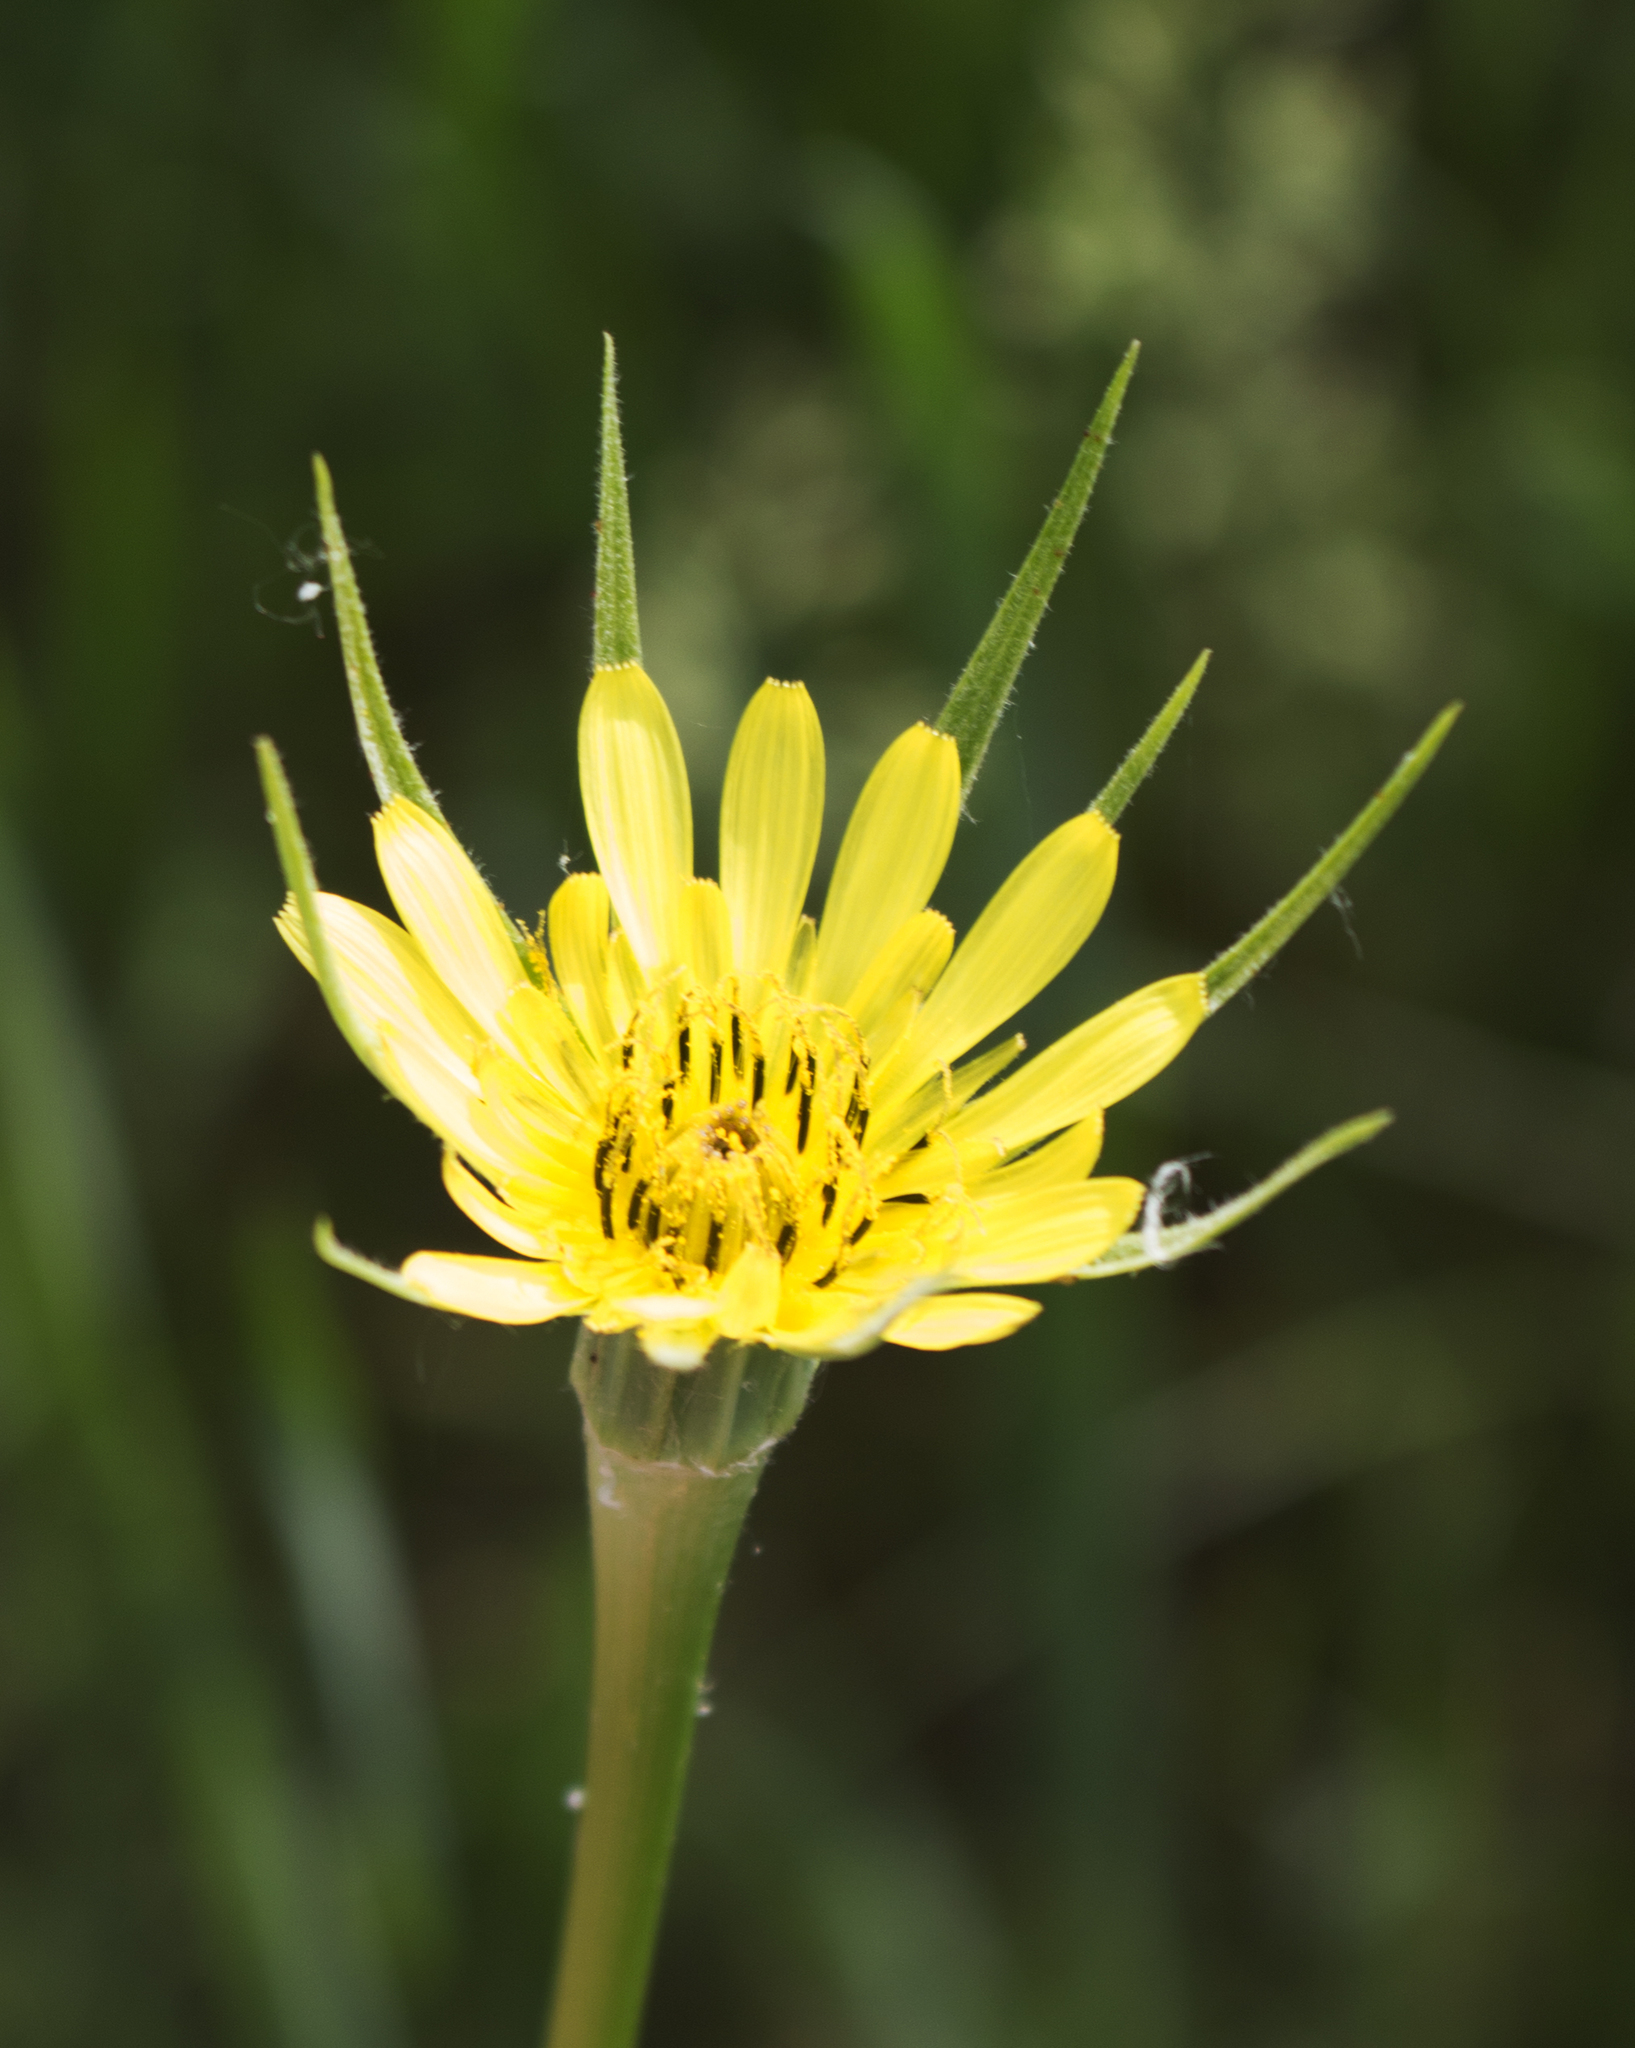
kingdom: Plantae
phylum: Tracheophyta
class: Magnoliopsida
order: Asterales
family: Asteraceae
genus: Tragopogon
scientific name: Tragopogon dubius
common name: Yellow salsify
